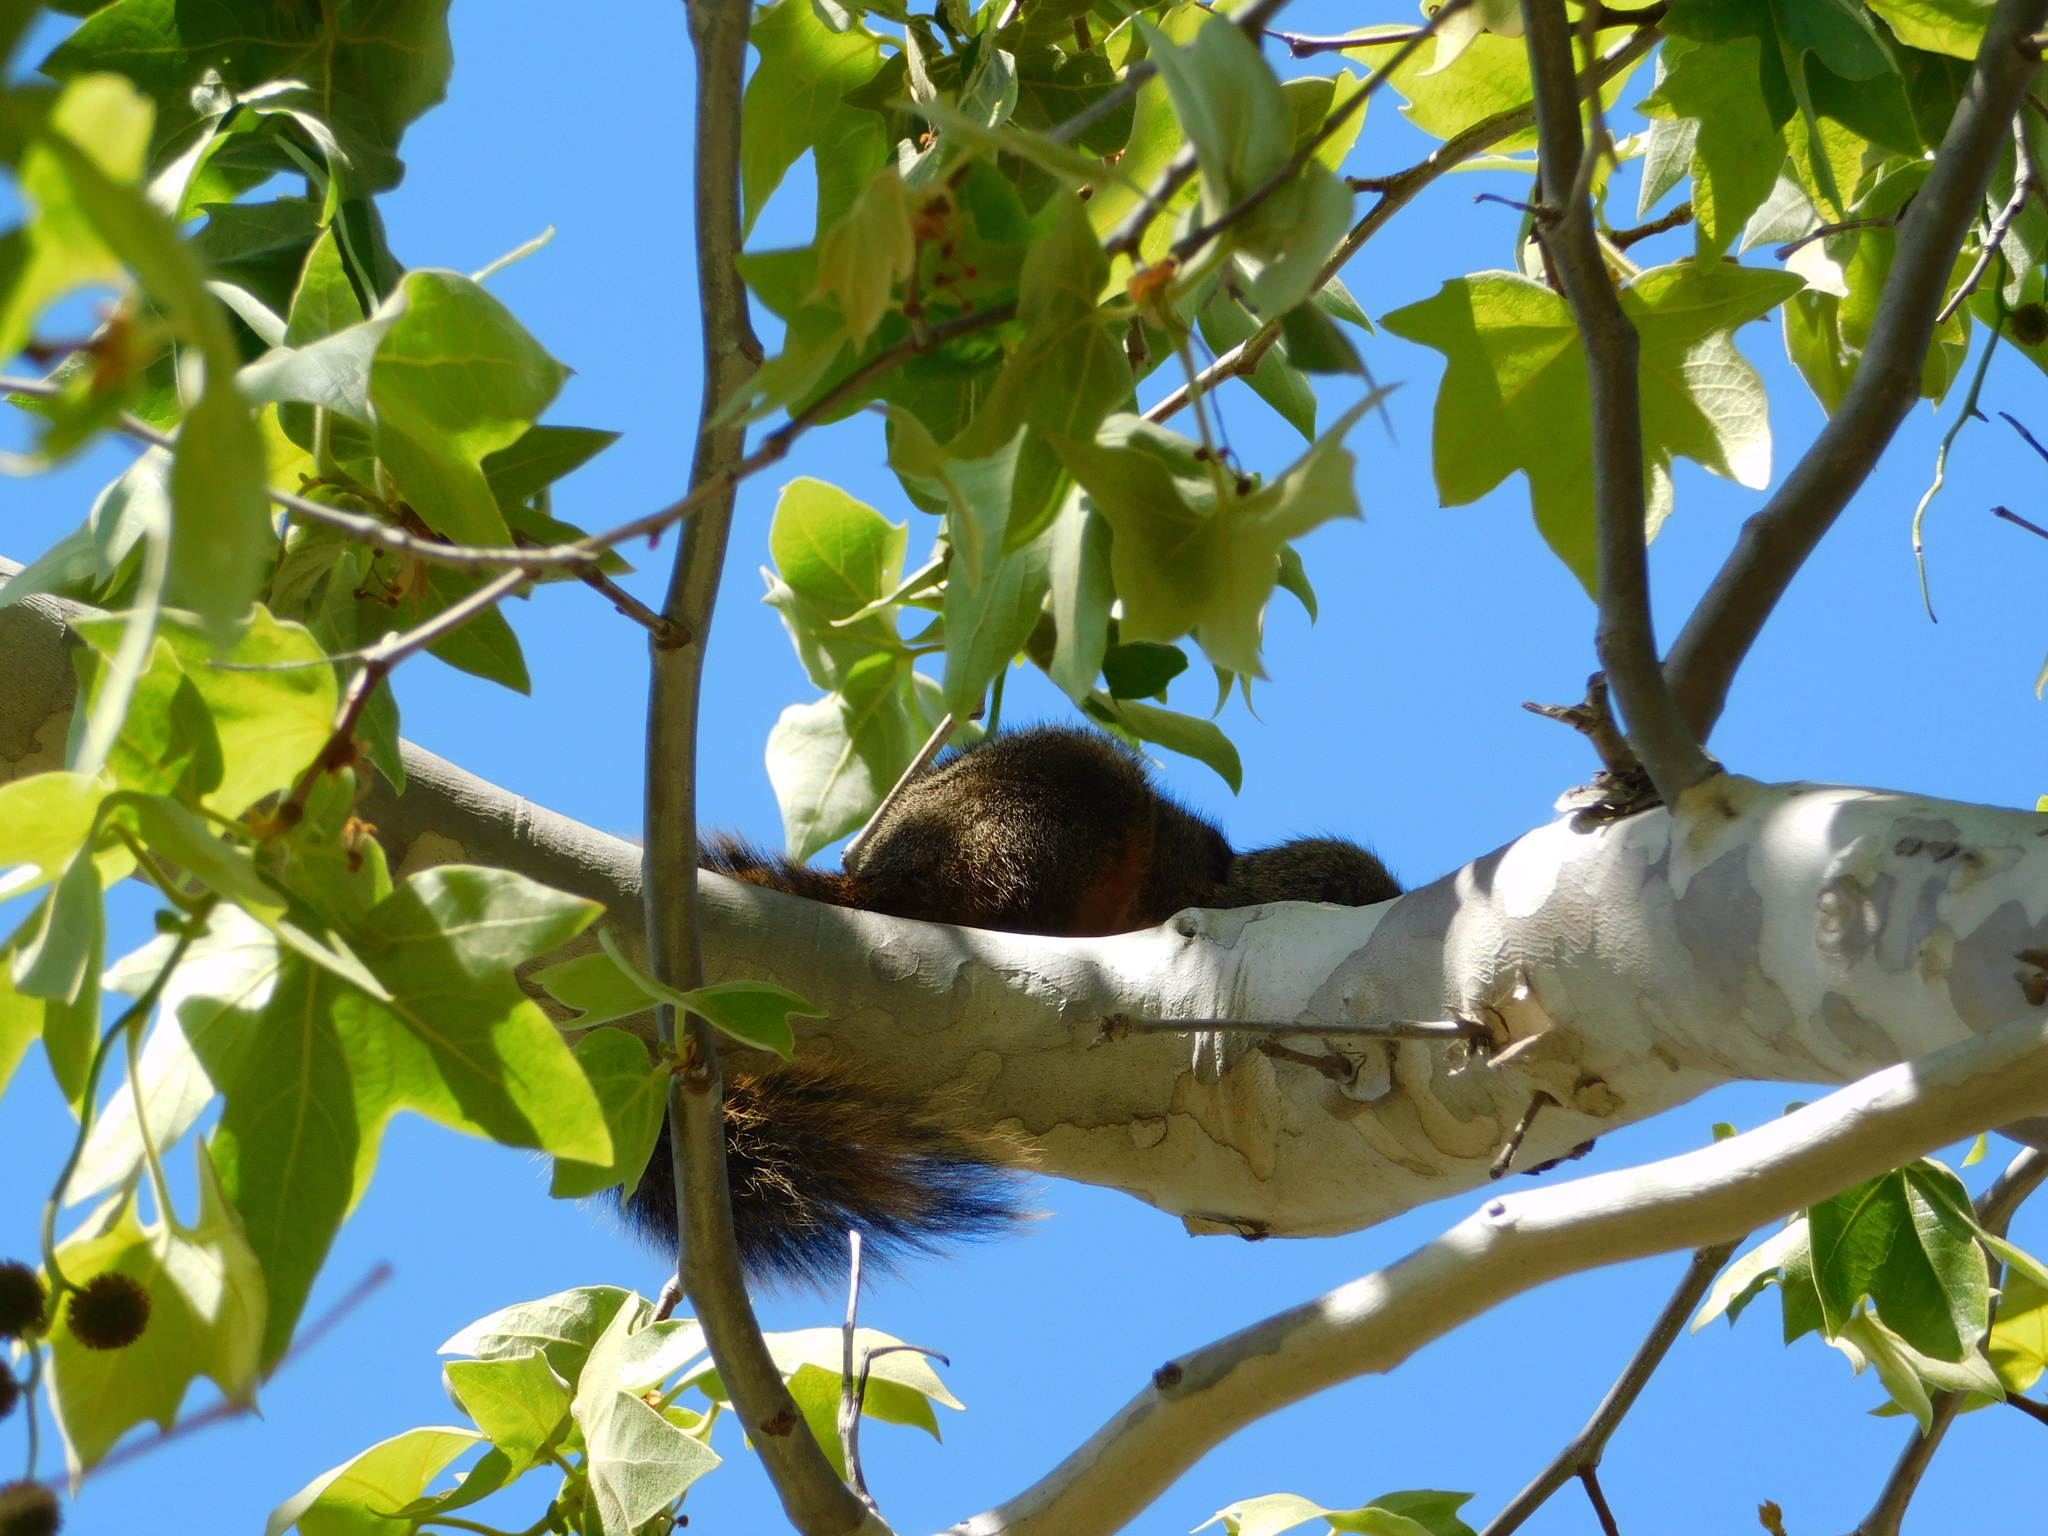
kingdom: Animalia
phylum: Chordata
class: Mammalia
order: Rodentia
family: Sciuridae
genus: Sciurus
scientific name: Sciurus niger
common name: Fox squirrel
